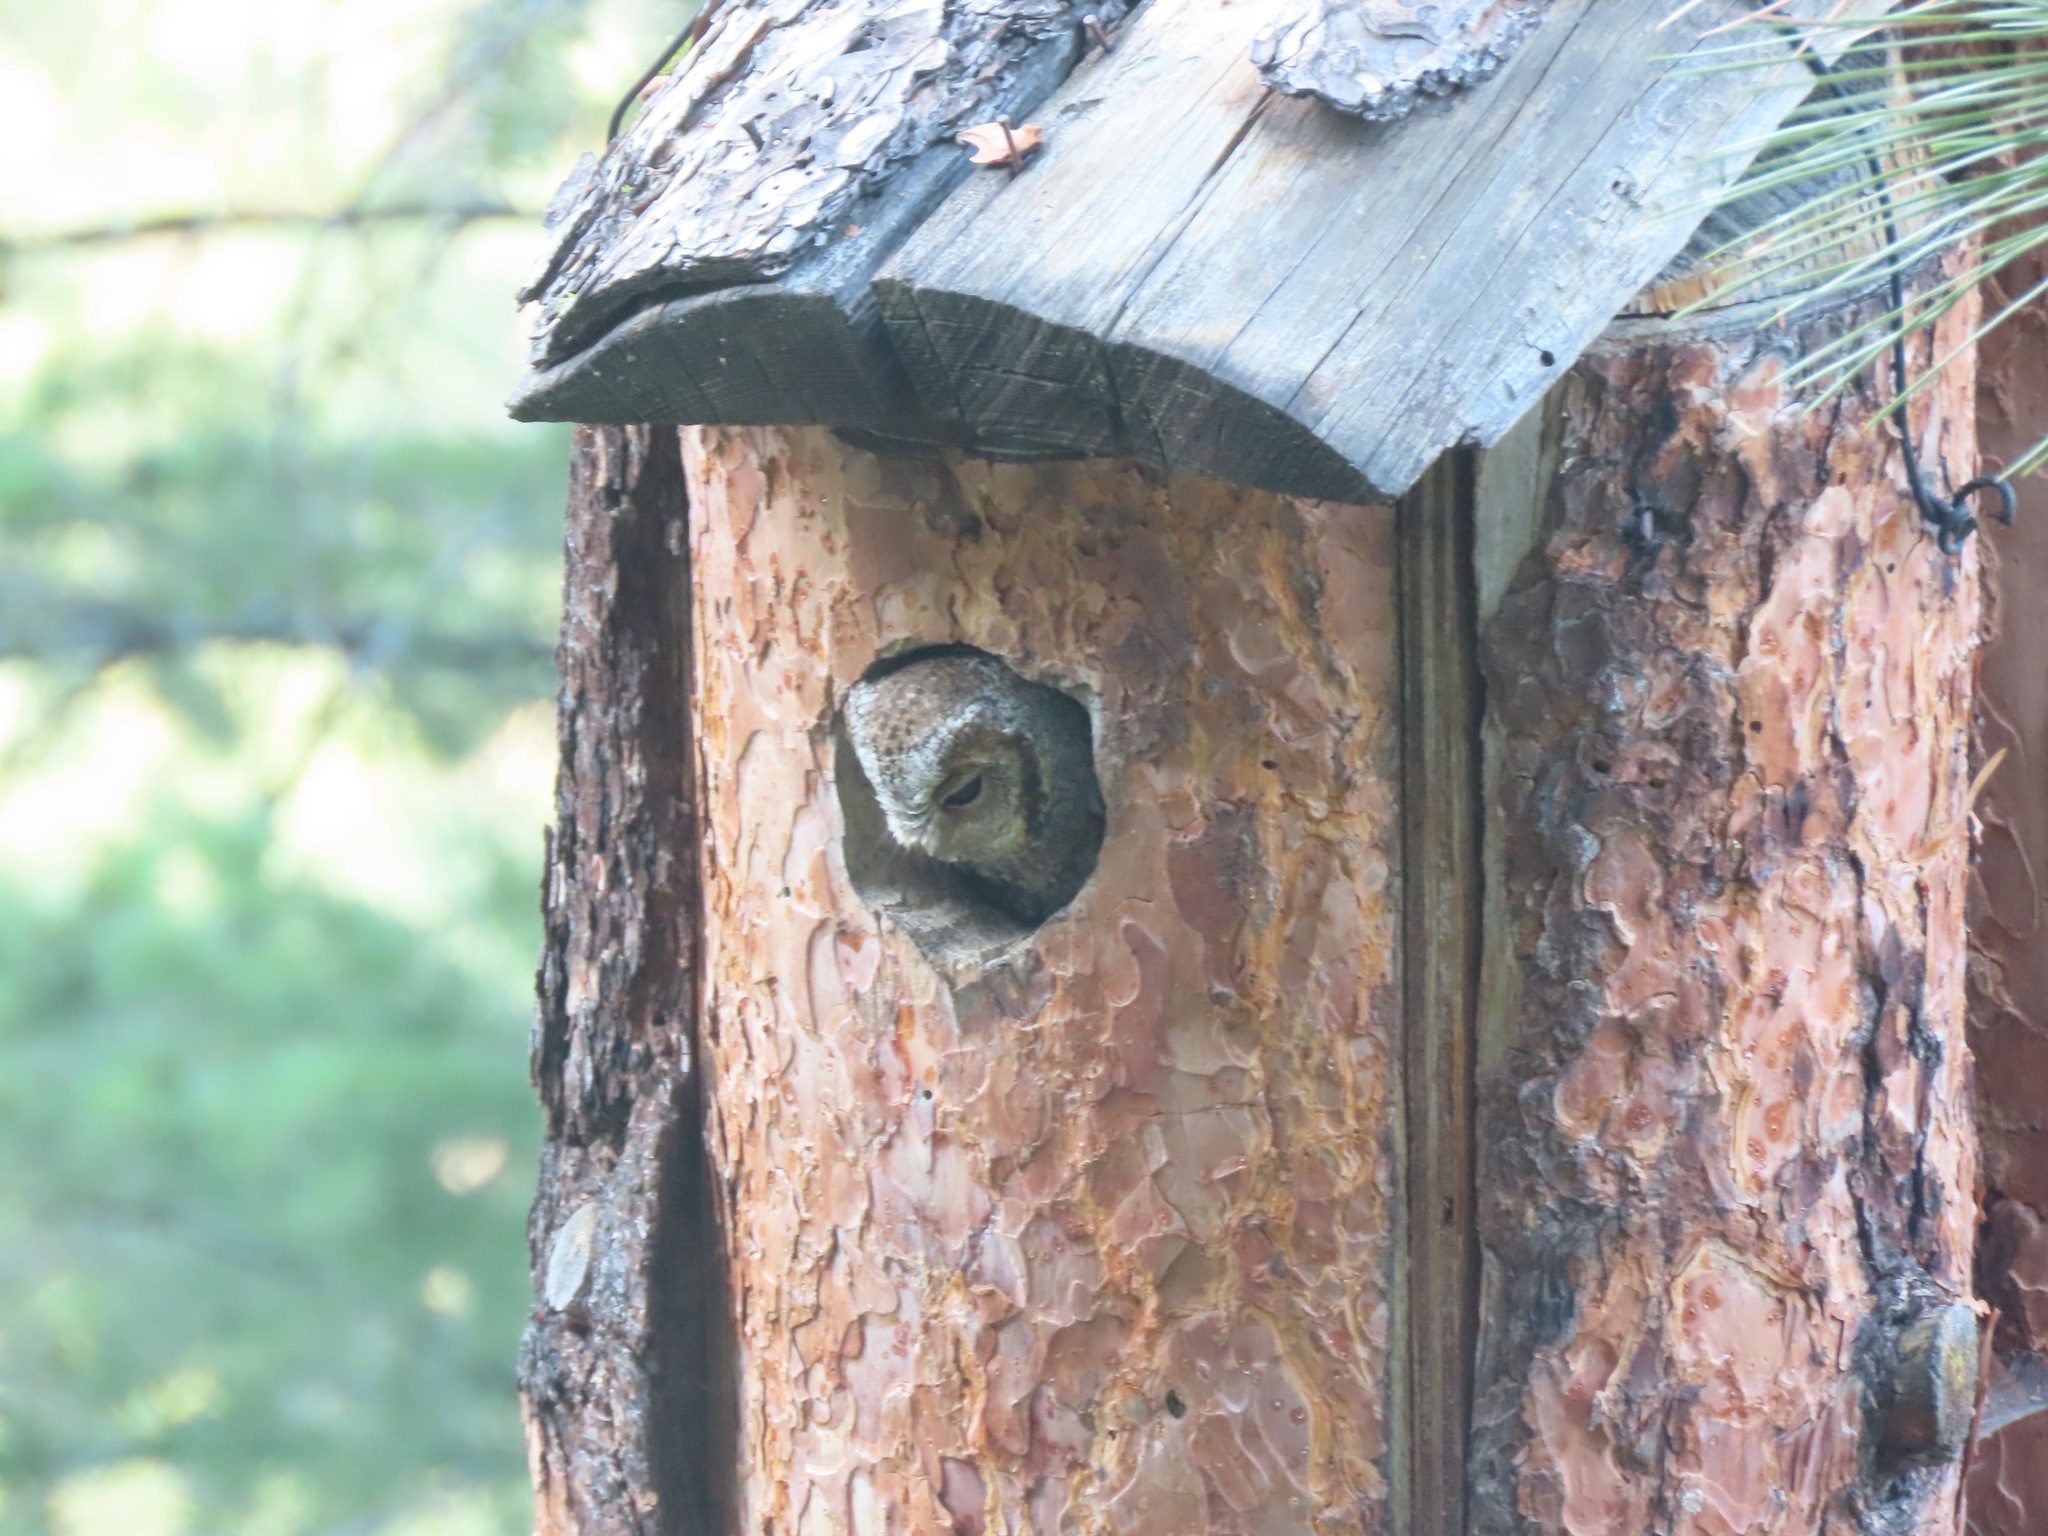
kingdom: Animalia
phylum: Chordata
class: Aves
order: Strigiformes
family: Strigidae
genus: Psiloscops
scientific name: Psiloscops flammeolus
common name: Flammulated owl
